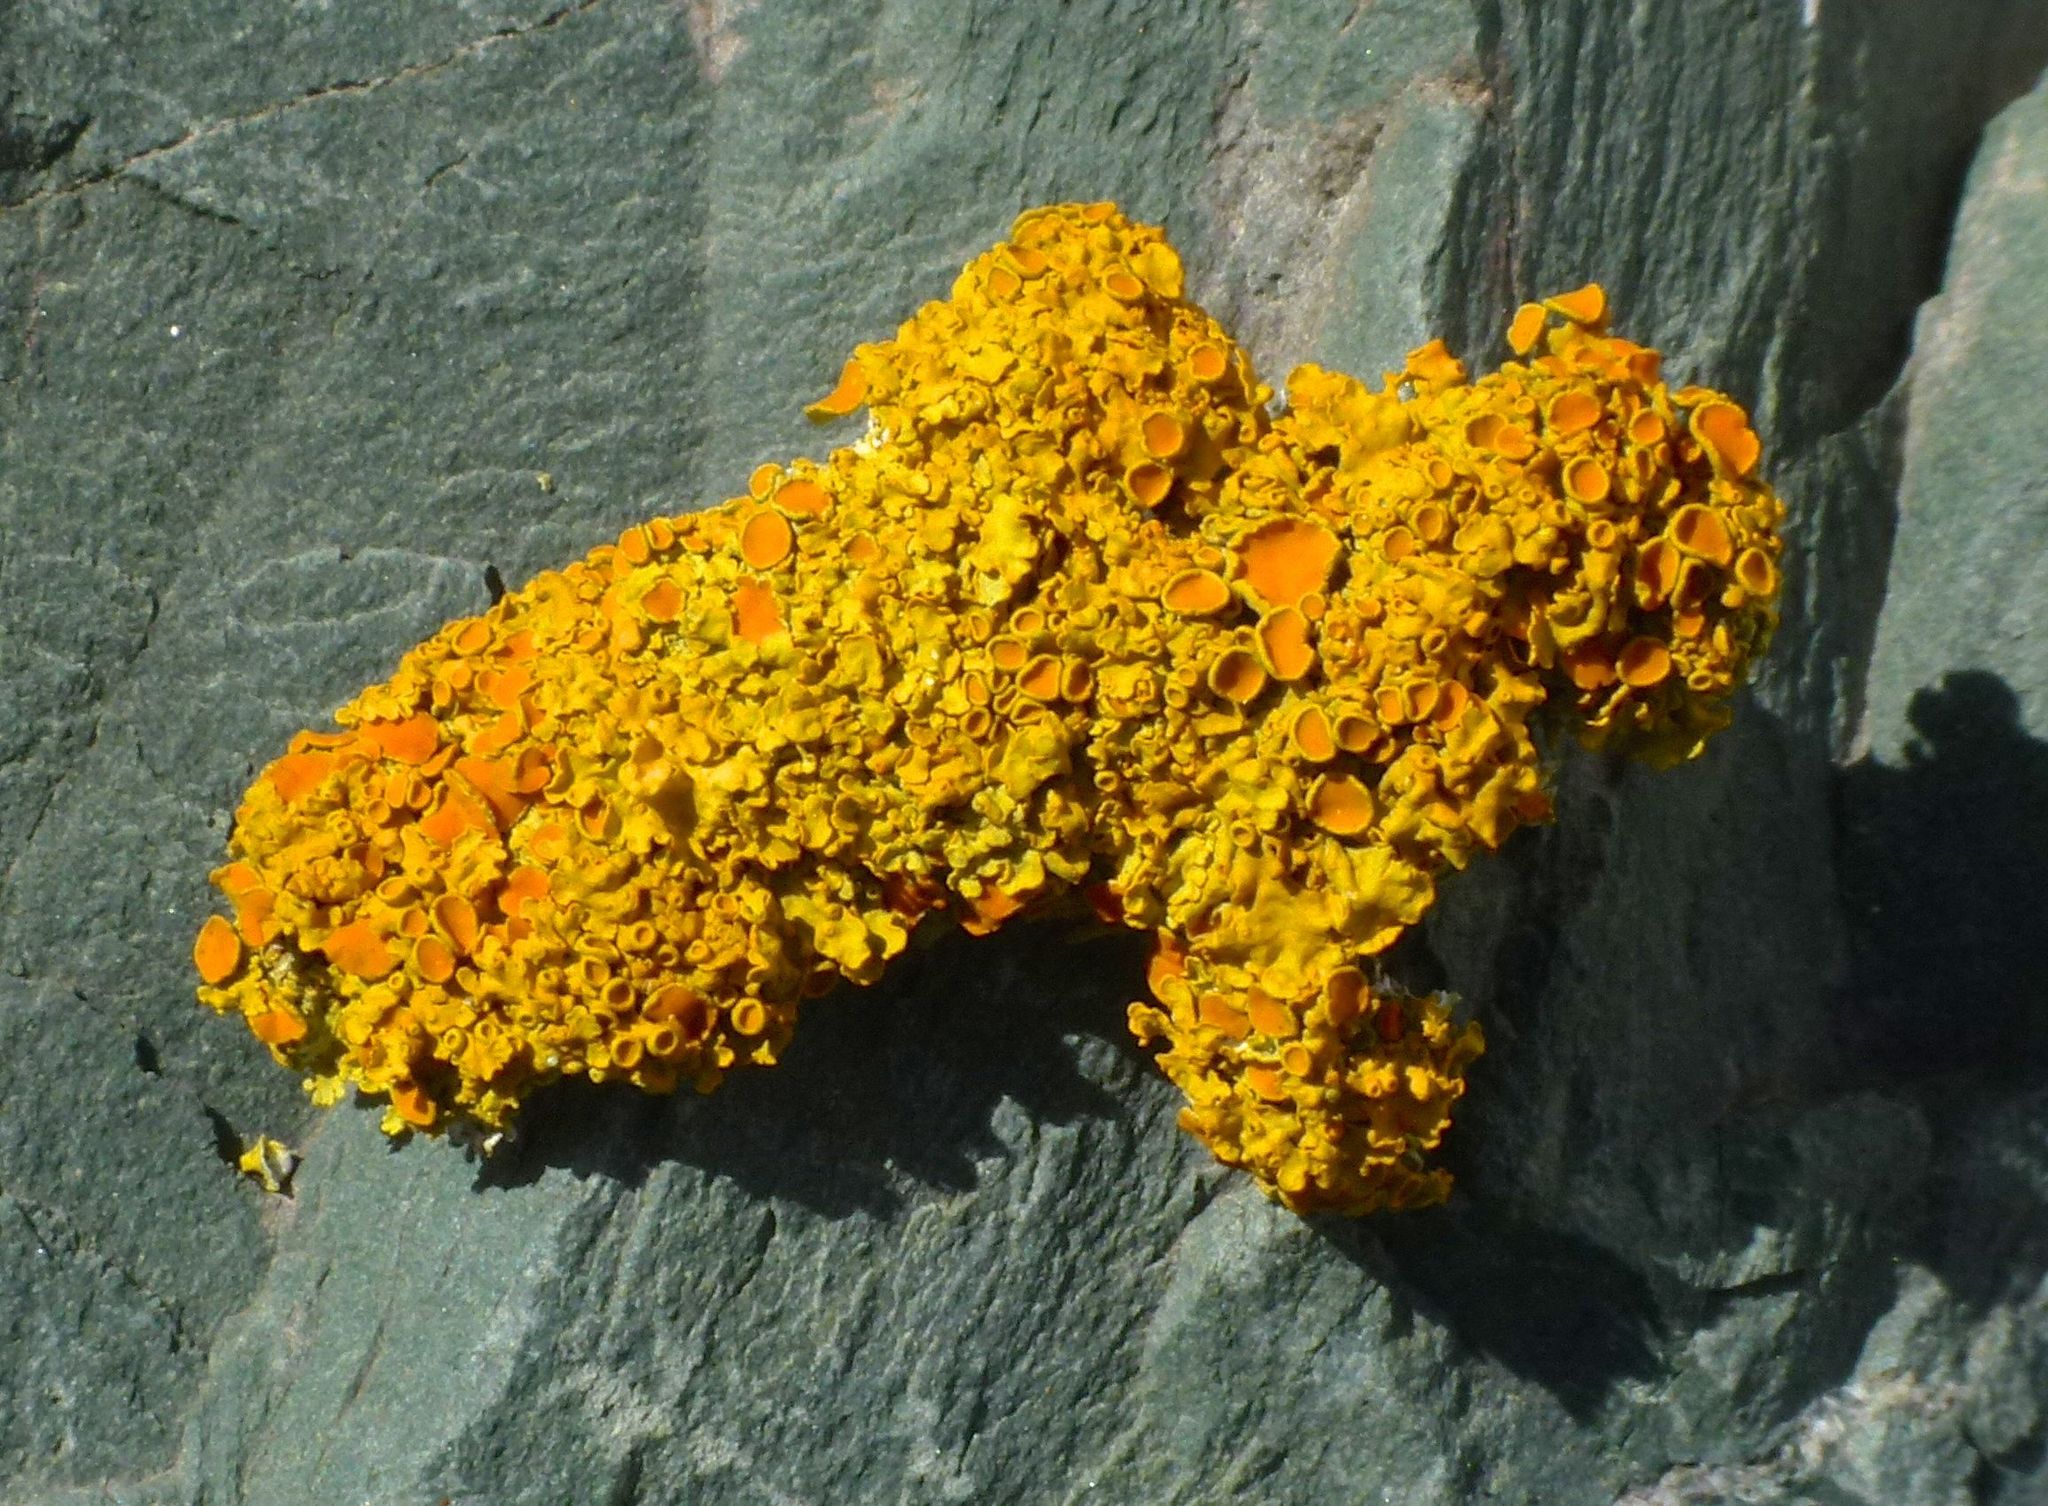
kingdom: Fungi
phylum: Ascomycota
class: Lecanoromycetes
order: Teloschistales
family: Teloschistaceae
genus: Xanthoria
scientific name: Xanthoria parietina
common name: Common orange lichen
